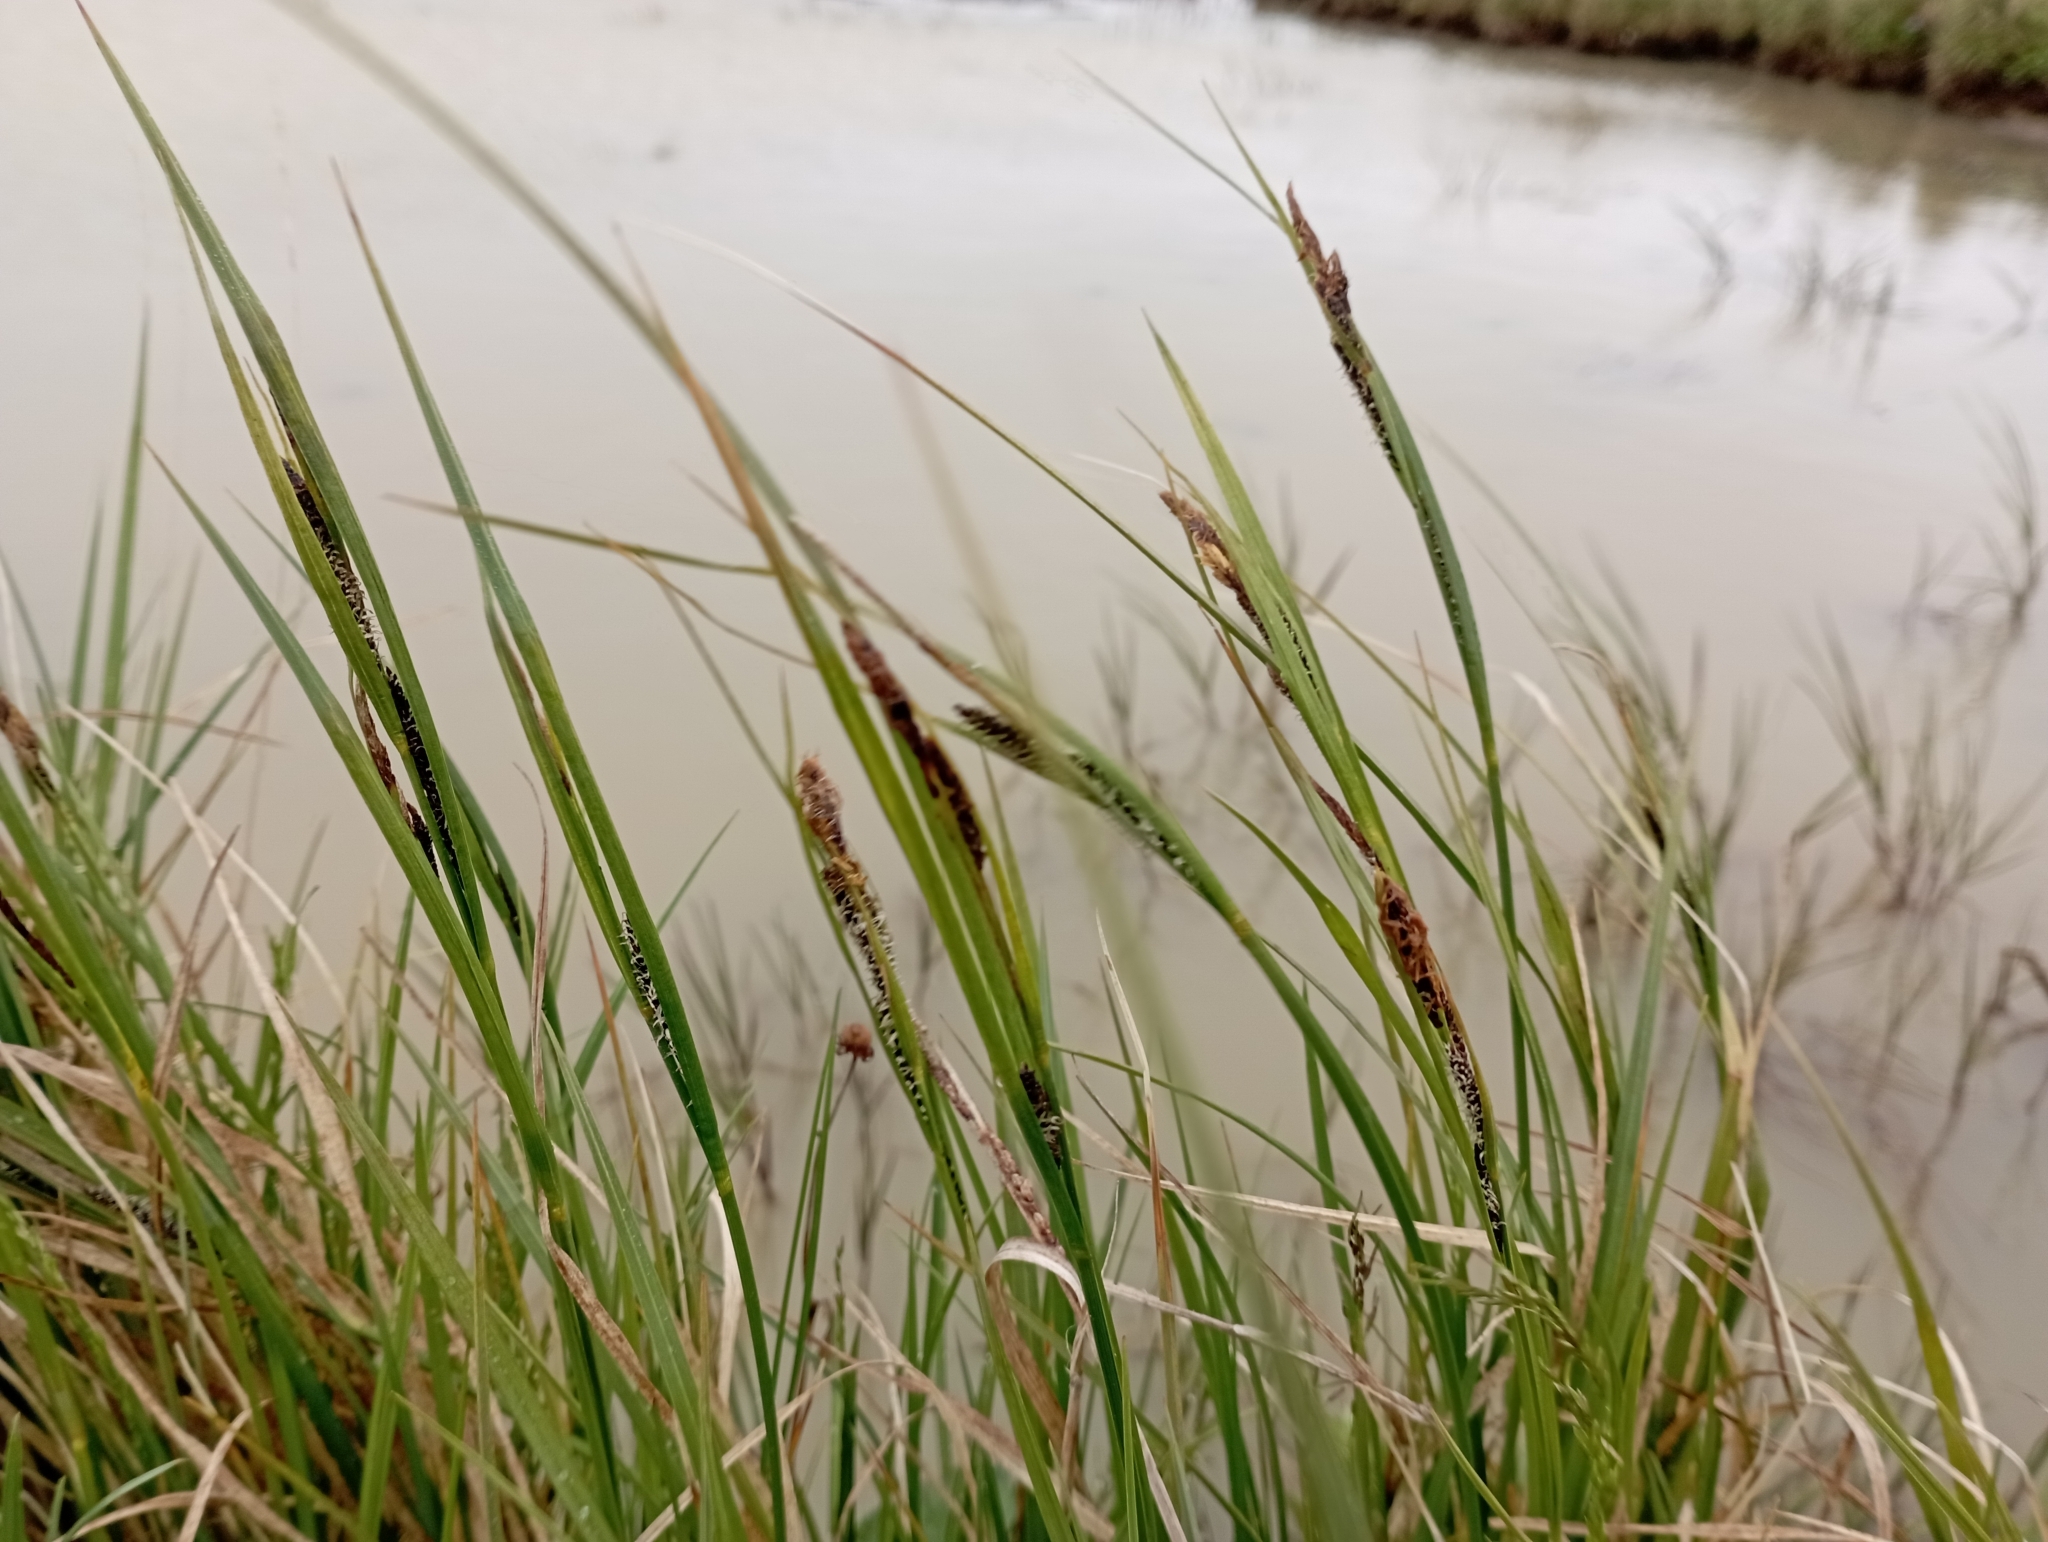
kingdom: Plantae
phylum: Tracheophyta
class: Liliopsida
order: Poales
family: Cyperaceae
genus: Carex
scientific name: Carex aquatilis
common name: Water sedge
